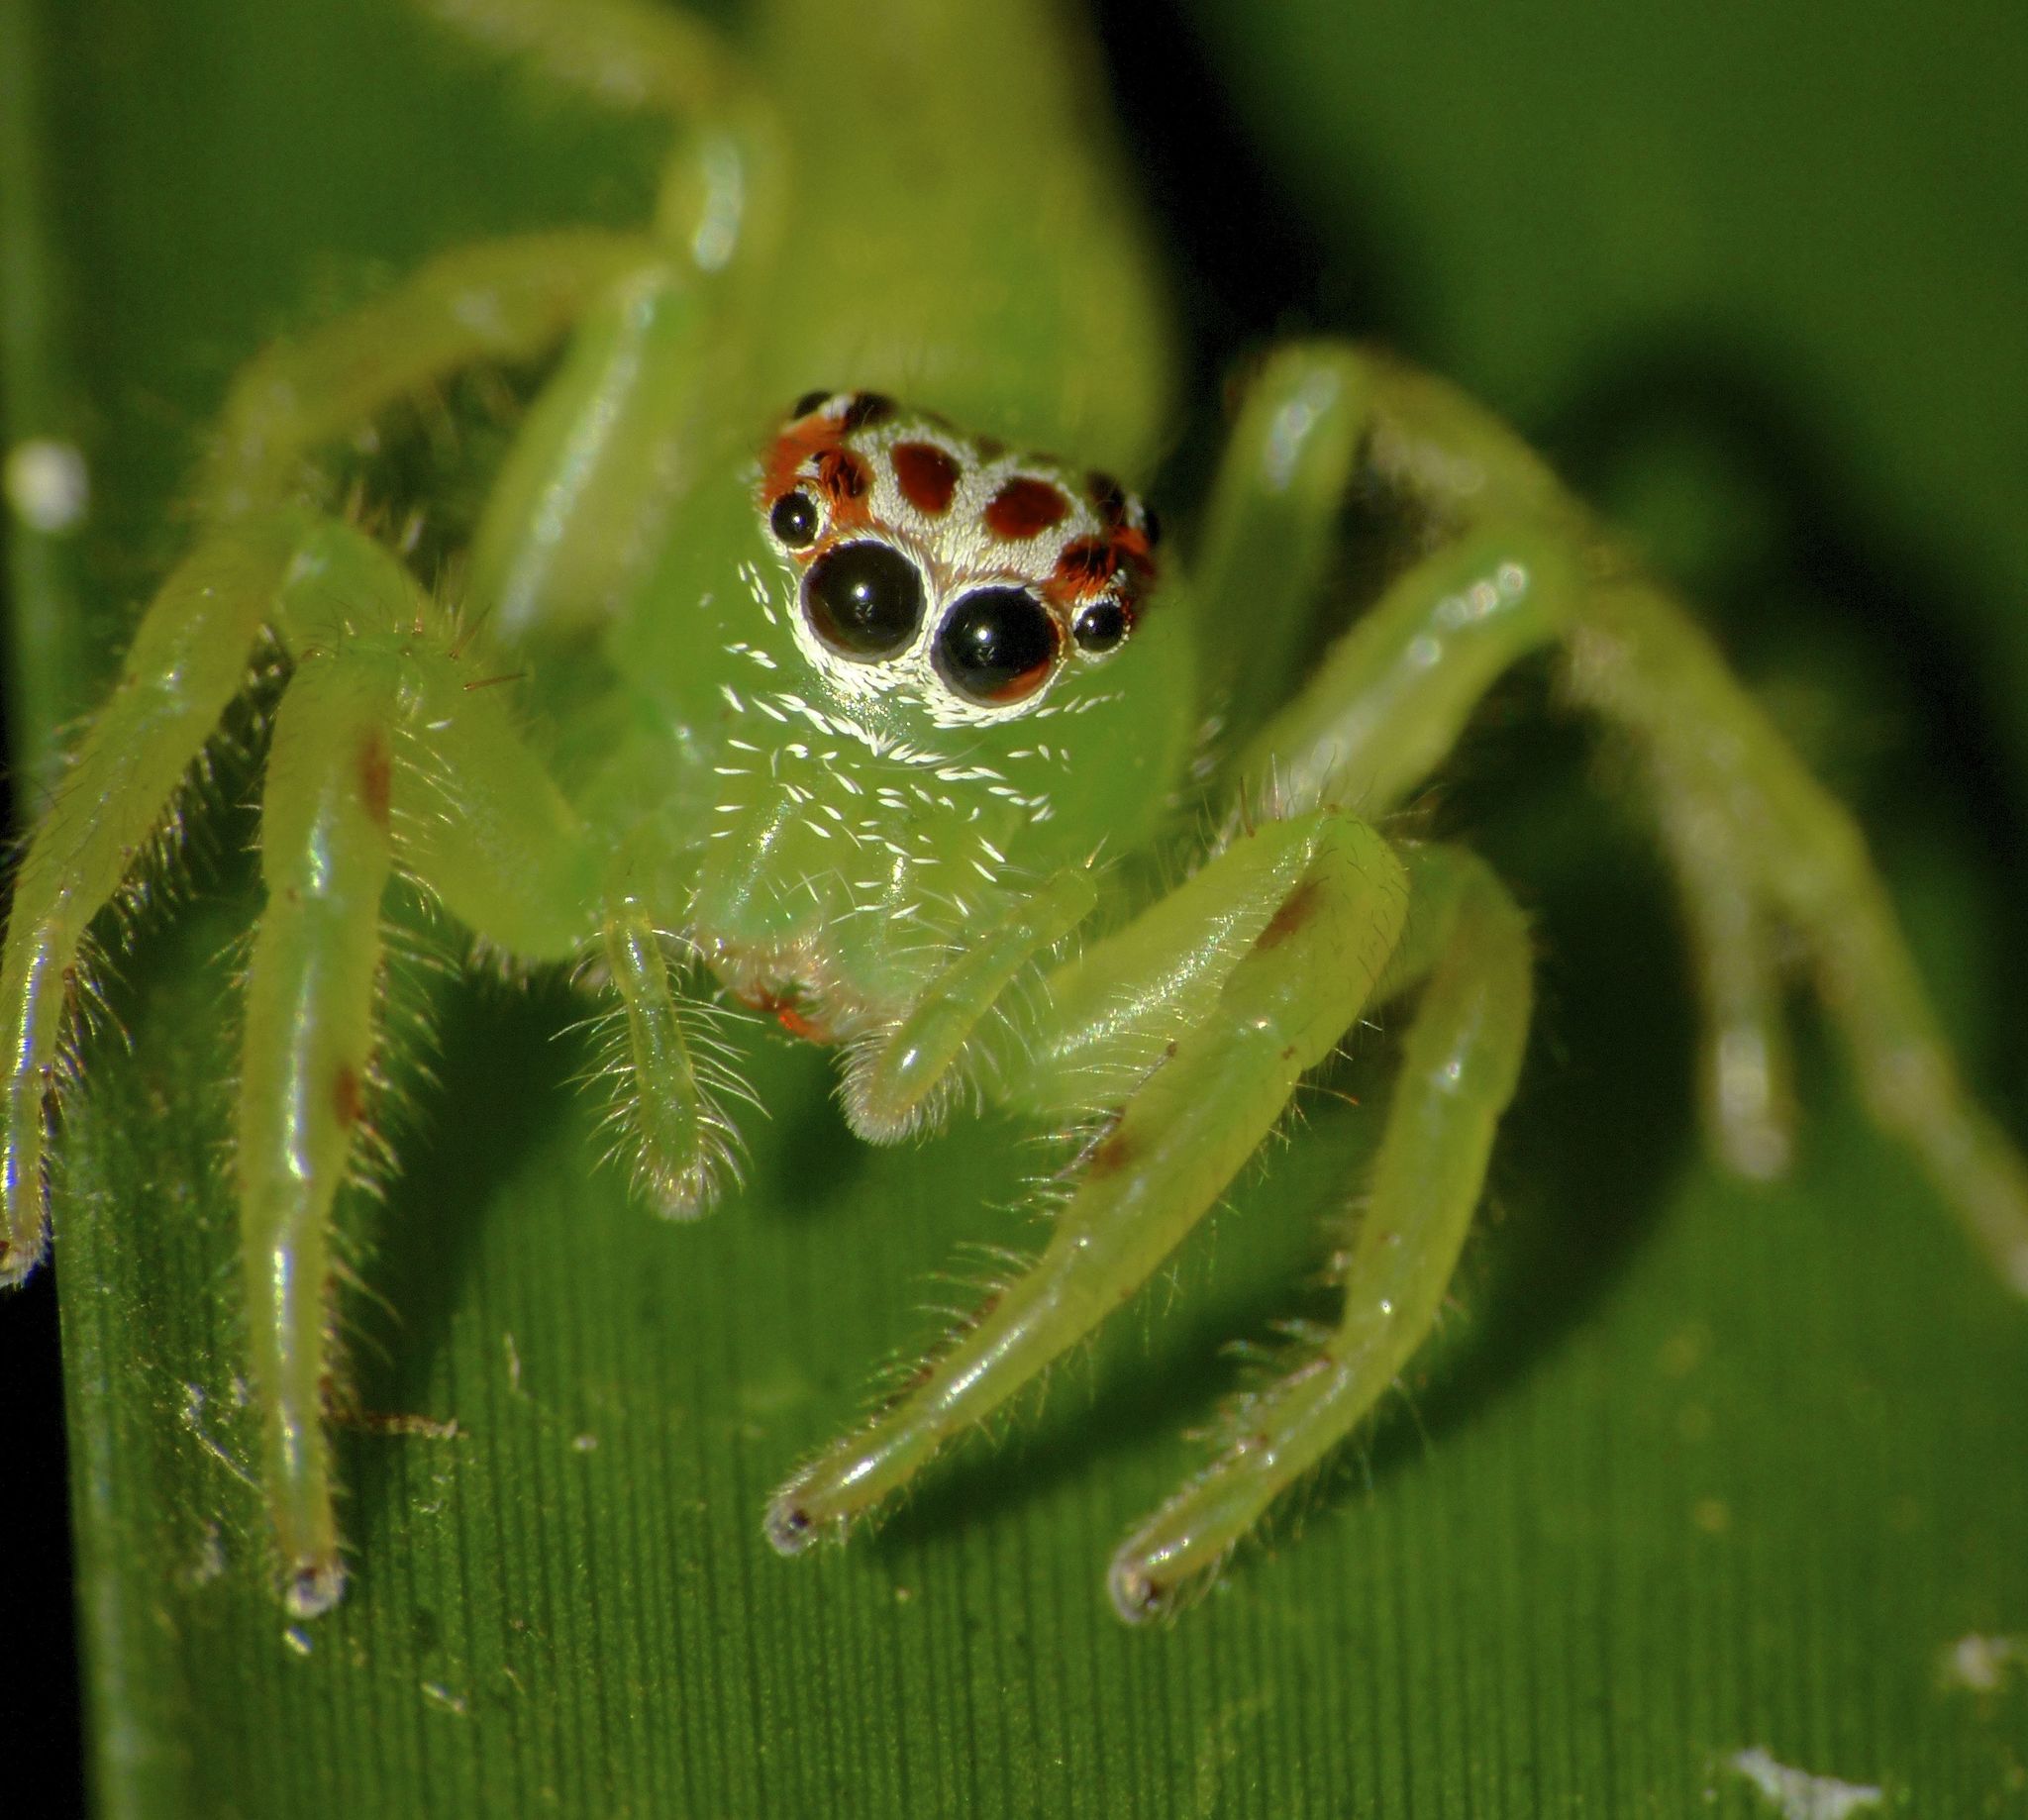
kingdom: Animalia
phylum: Arthropoda
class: Arachnida
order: Araneae
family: Salticidae
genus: Mopsus
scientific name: Mopsus mormon
